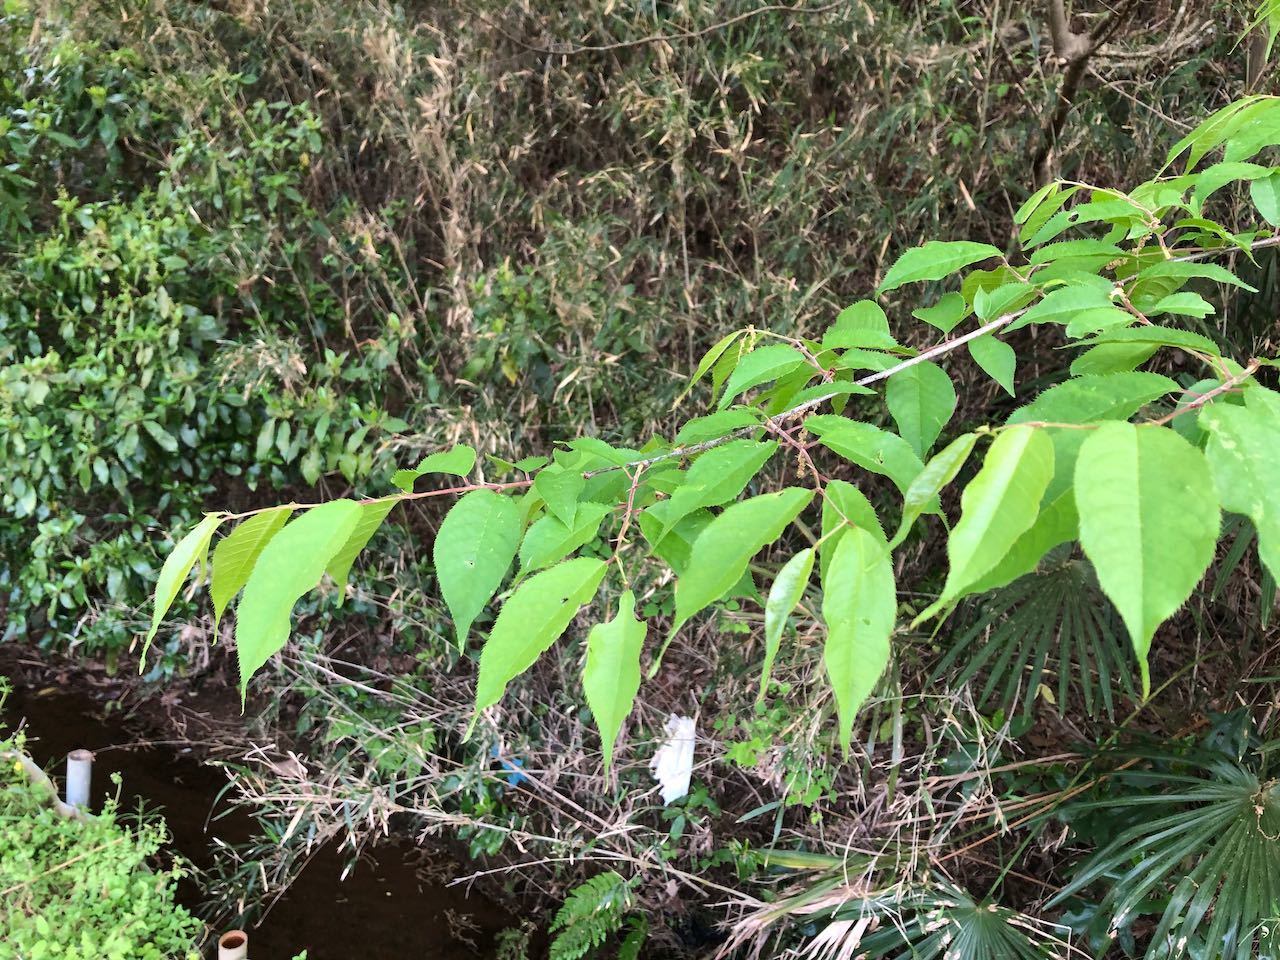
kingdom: Plantae
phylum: Tracheophyta
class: Magnoliopsida
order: Rosales
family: Rosaceae
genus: Prunus
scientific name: Prunus grayana
